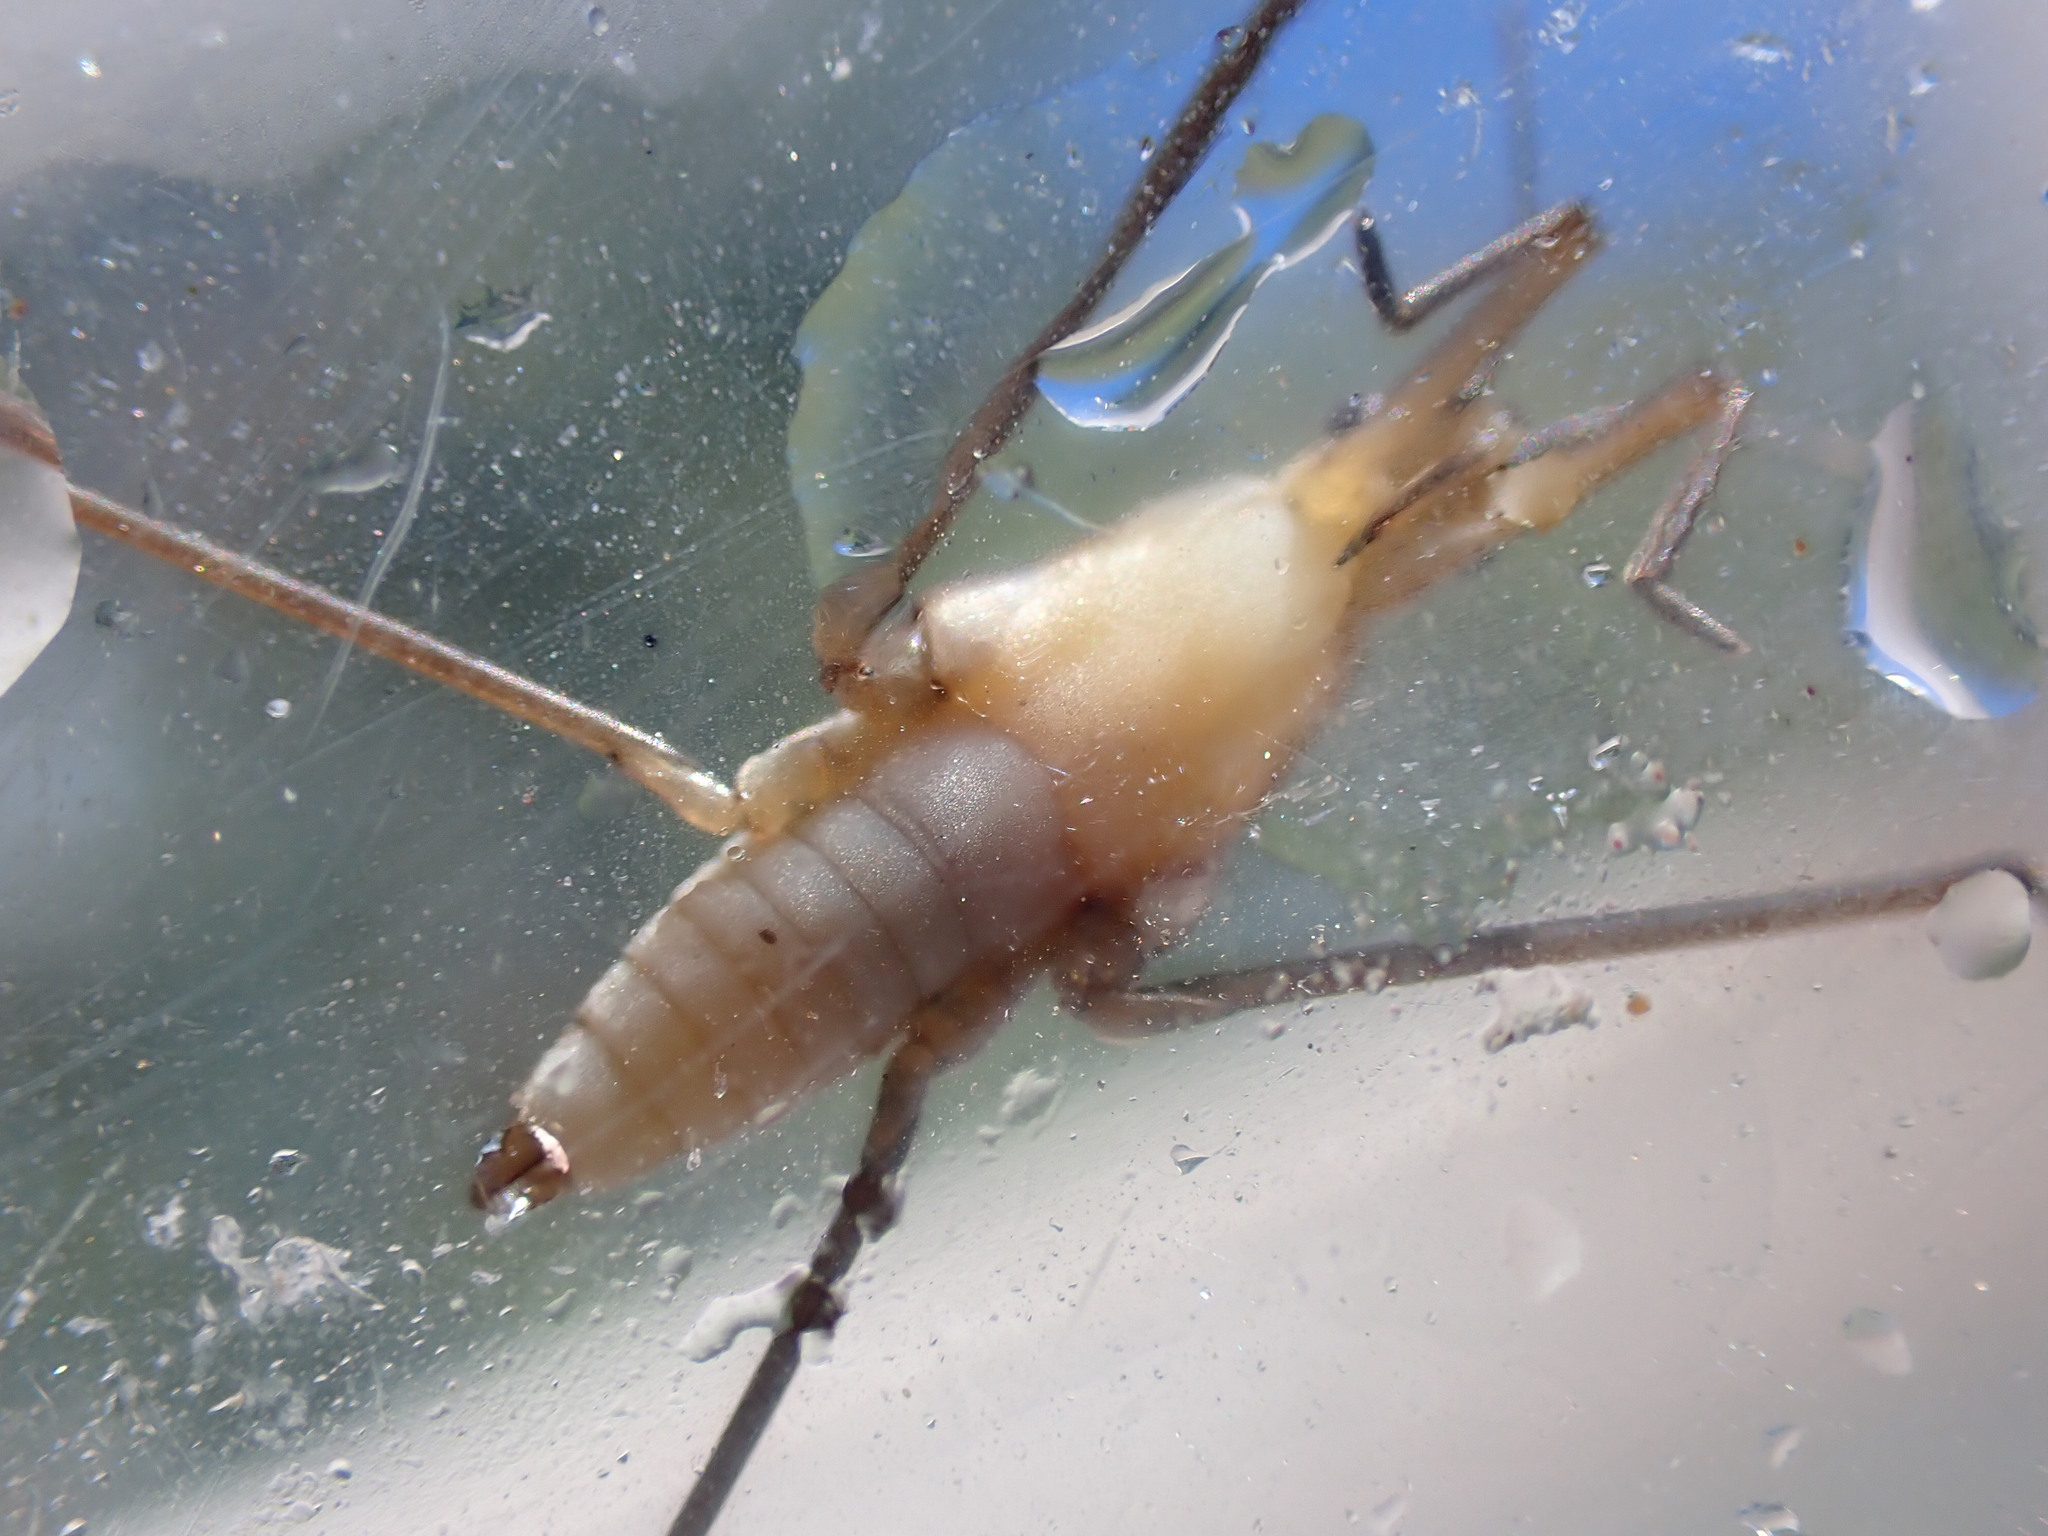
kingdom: Animalia
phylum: Arthropoda
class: Insecta
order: Hemiptera
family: Gerridae
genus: Aquarius
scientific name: Aquarius remigis
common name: Common water strider
